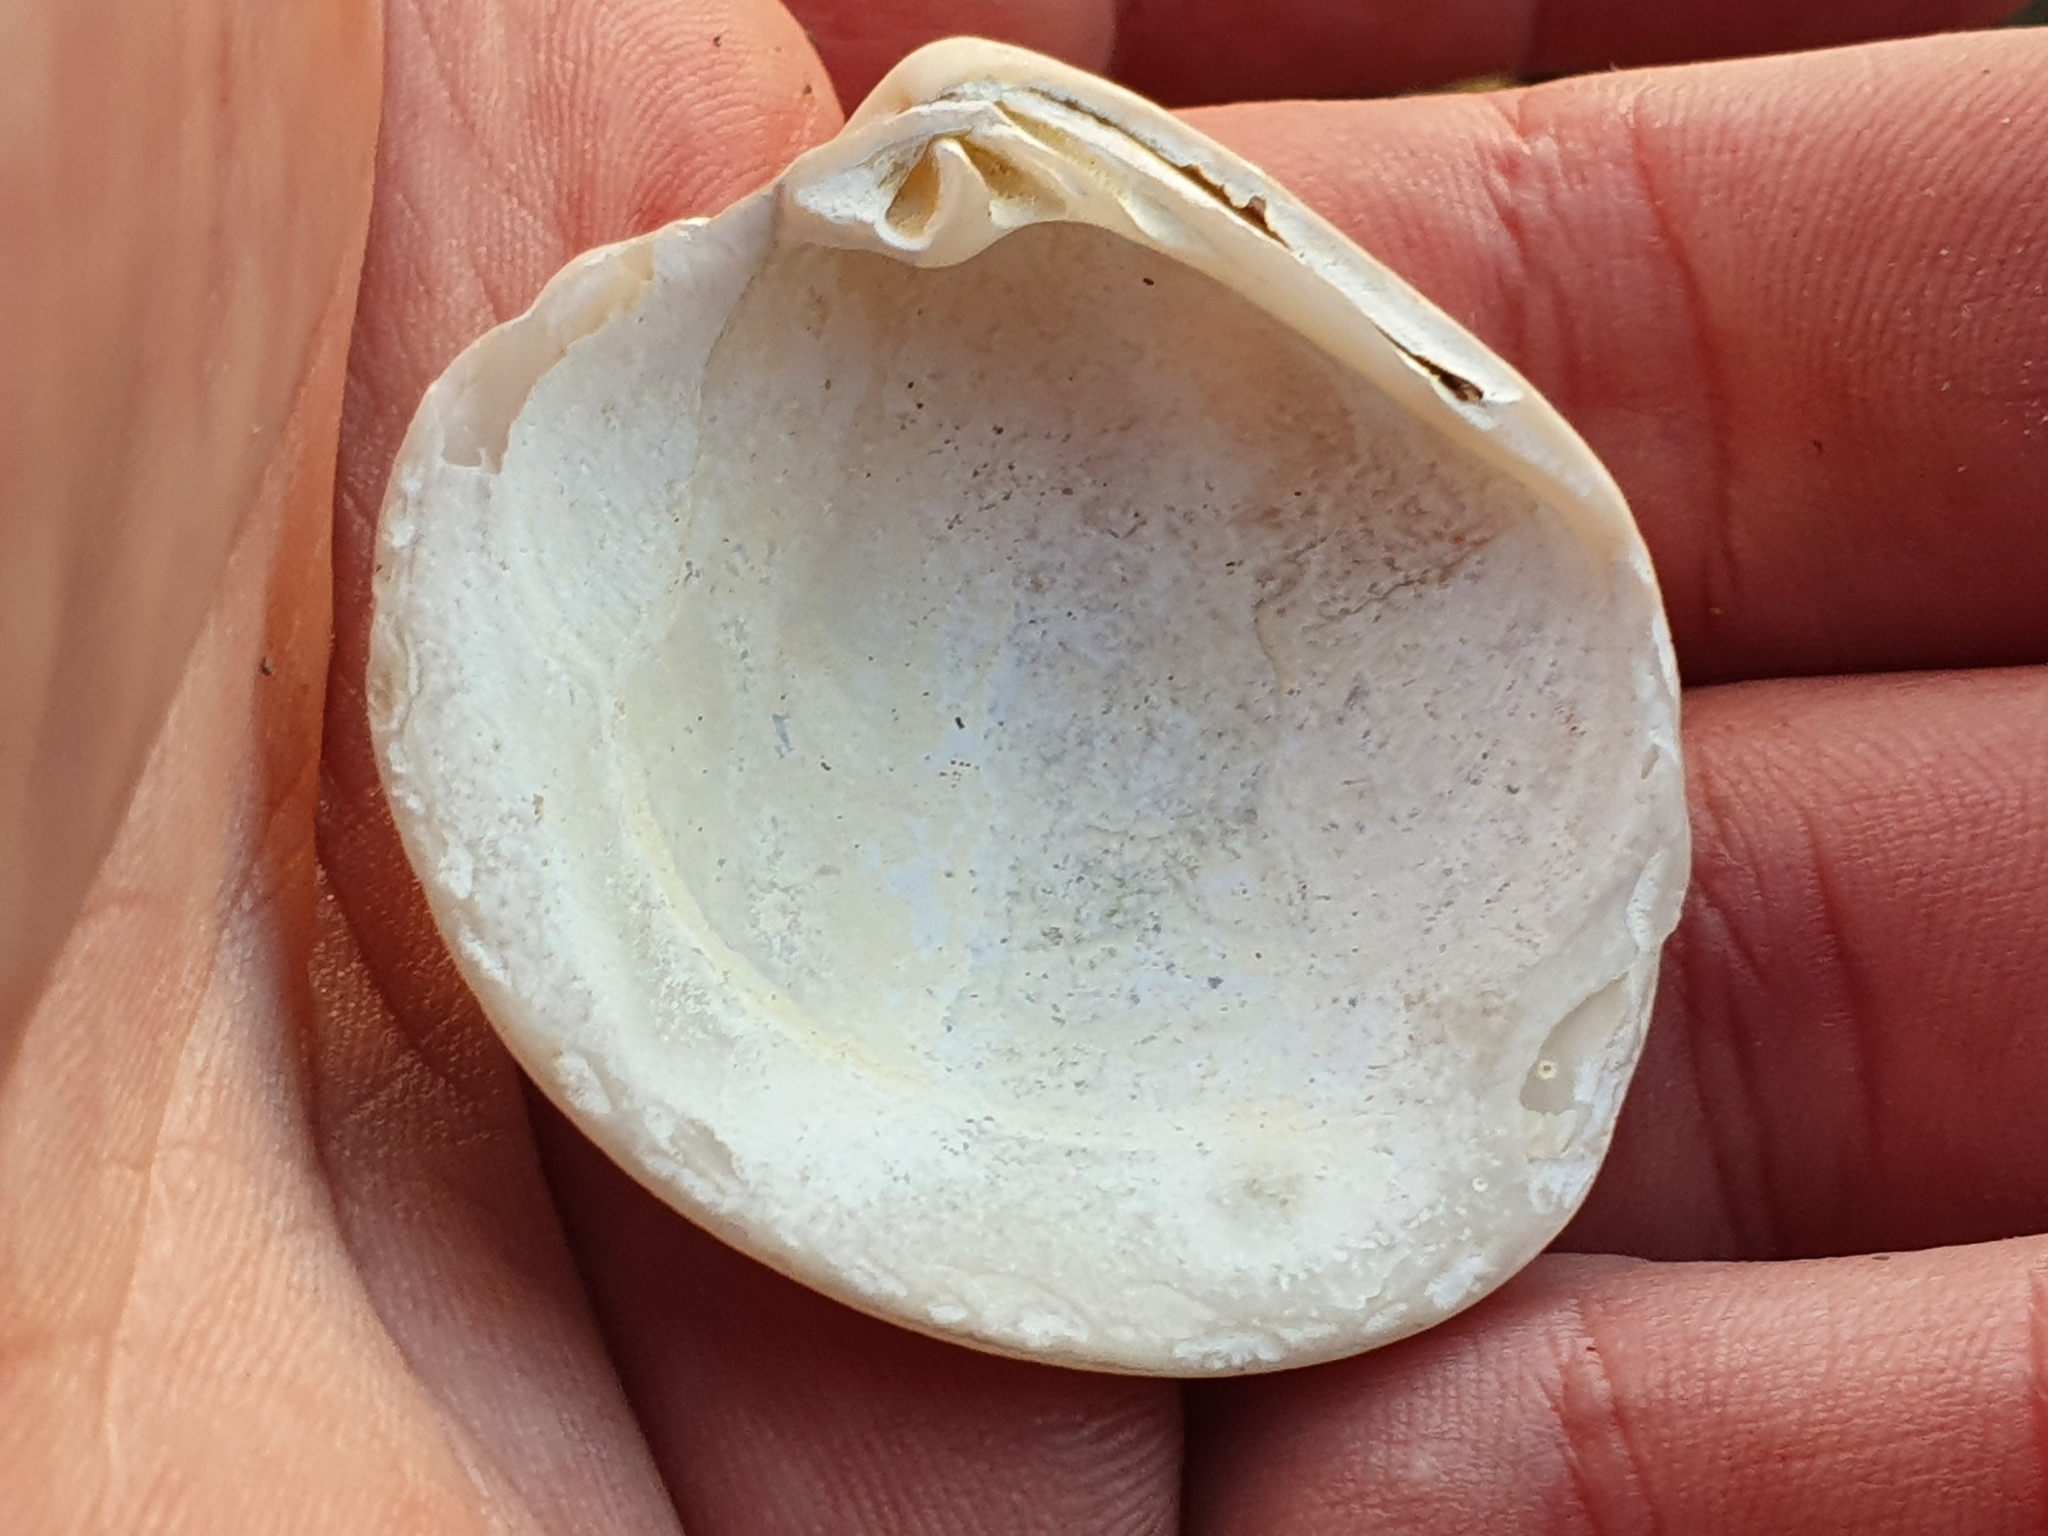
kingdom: Animalia
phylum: Mollusca
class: Bivalvia
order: Venerida
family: Veneridae
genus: Dosina
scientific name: Dosina mactracea
